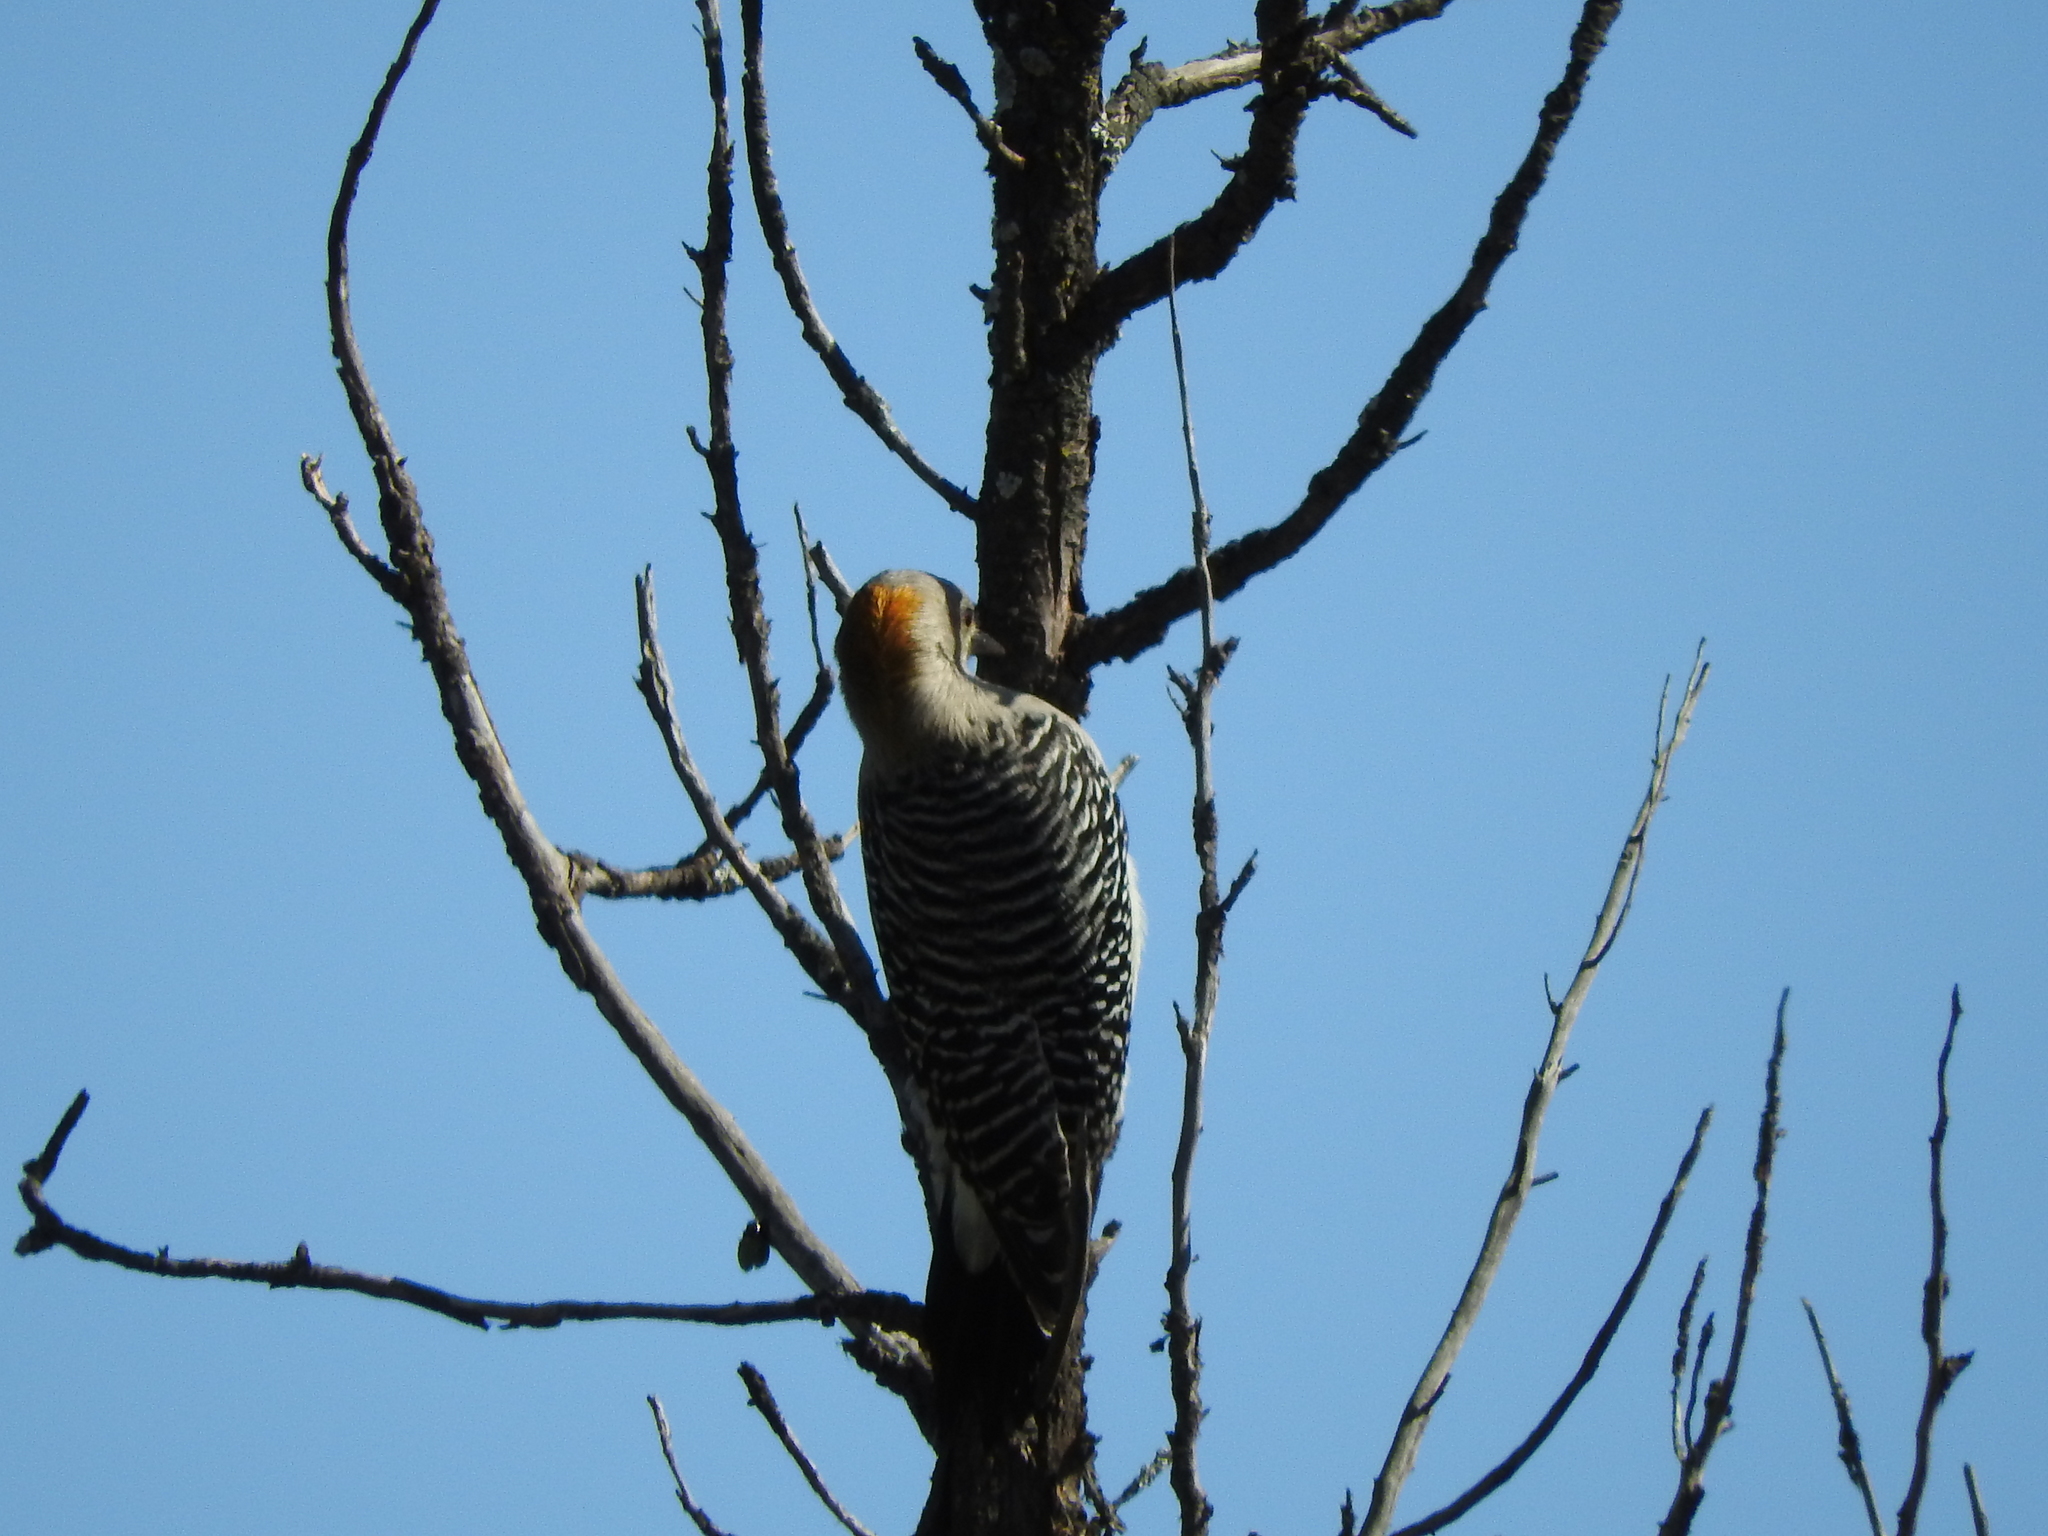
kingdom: Animalia
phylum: Chordata
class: Aves
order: Piciformes
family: Picidae
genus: Melanerpes
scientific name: Melanerpes aurifrons
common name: Golden-fronted woodpecker
